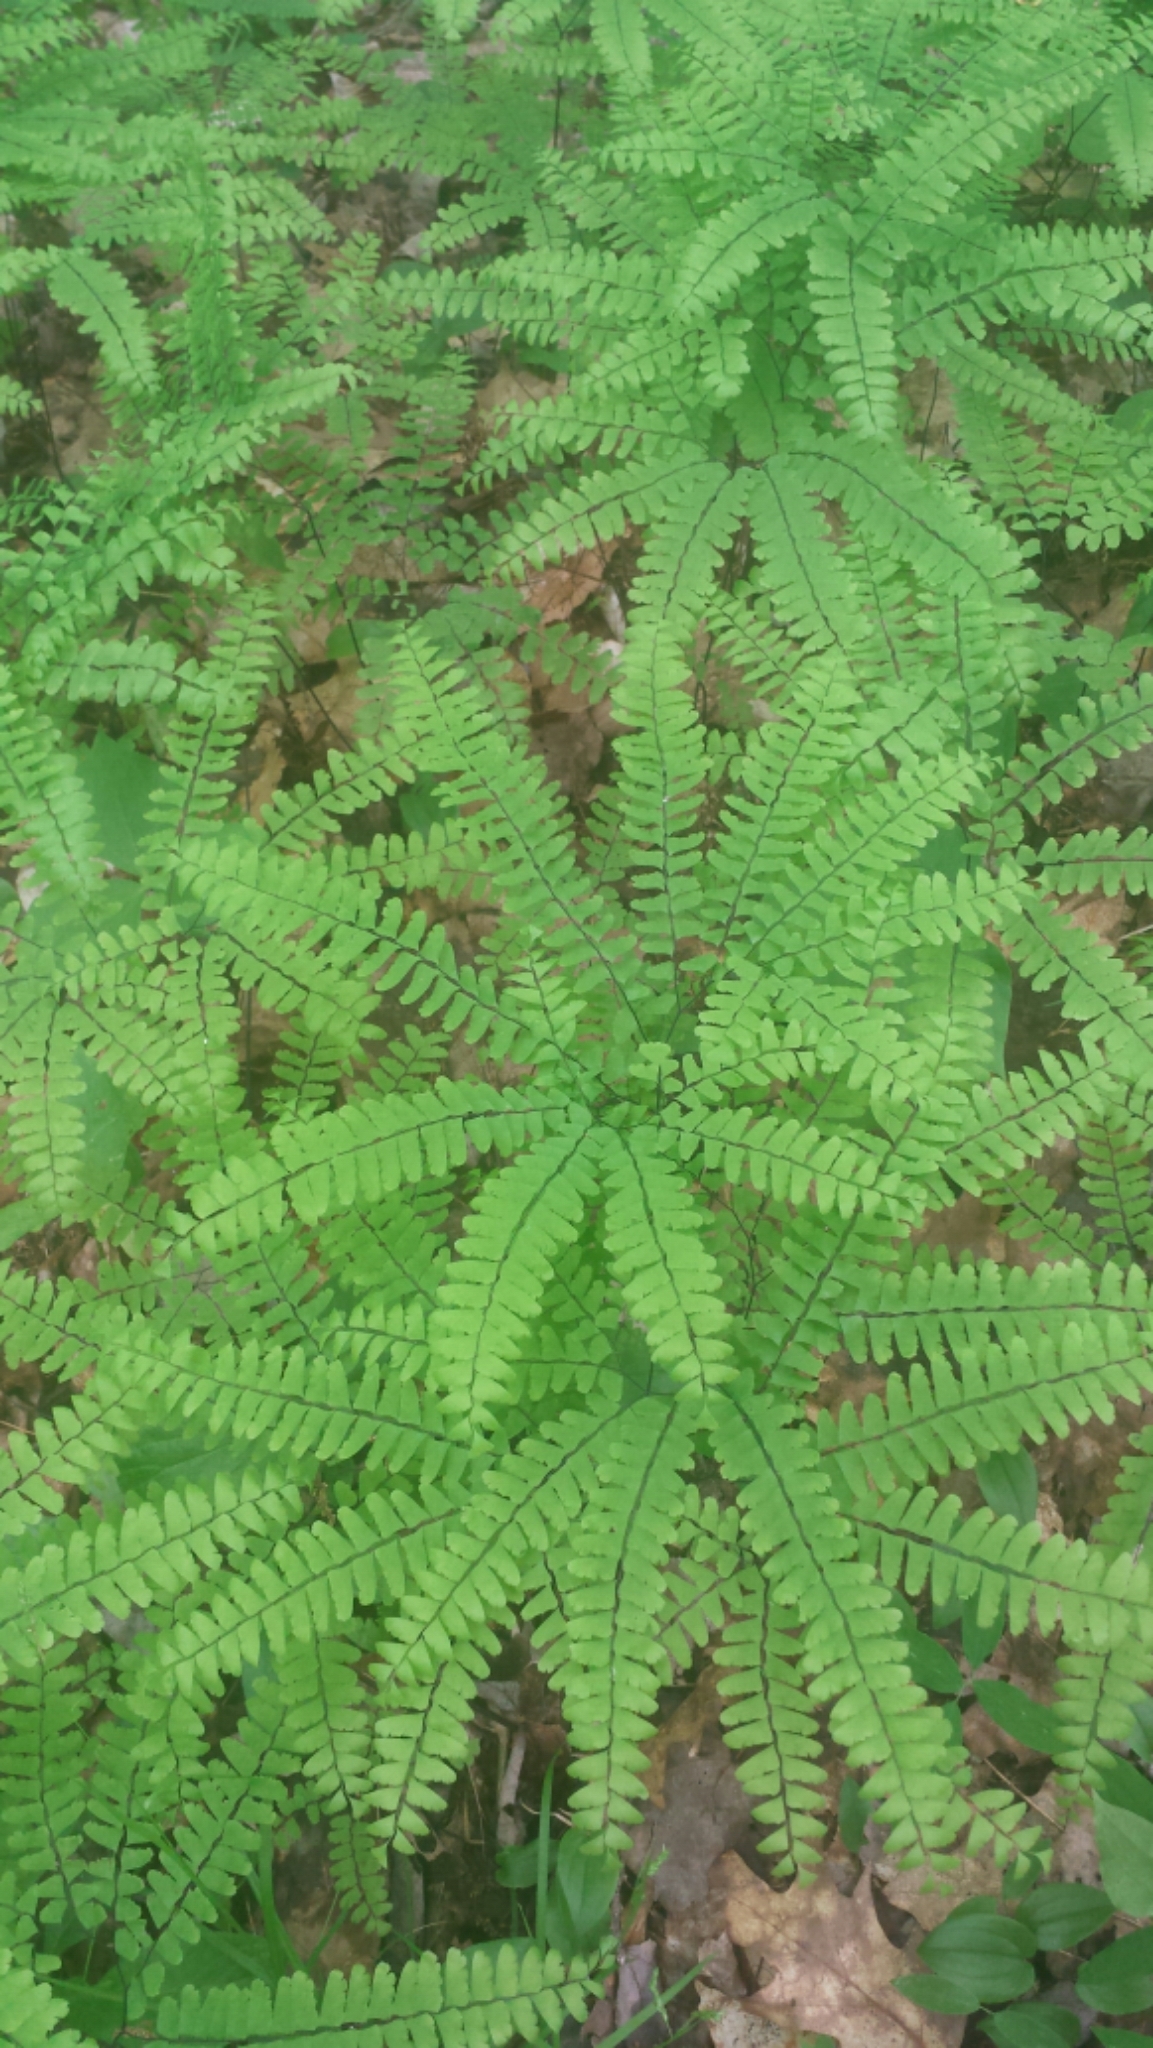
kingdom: Plantae
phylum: Tracheophyta
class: Polypodiopsida
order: Polypodiales
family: Pteridaceae
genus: Adiantum
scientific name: Adiantum pedatum
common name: Five-finger fern
